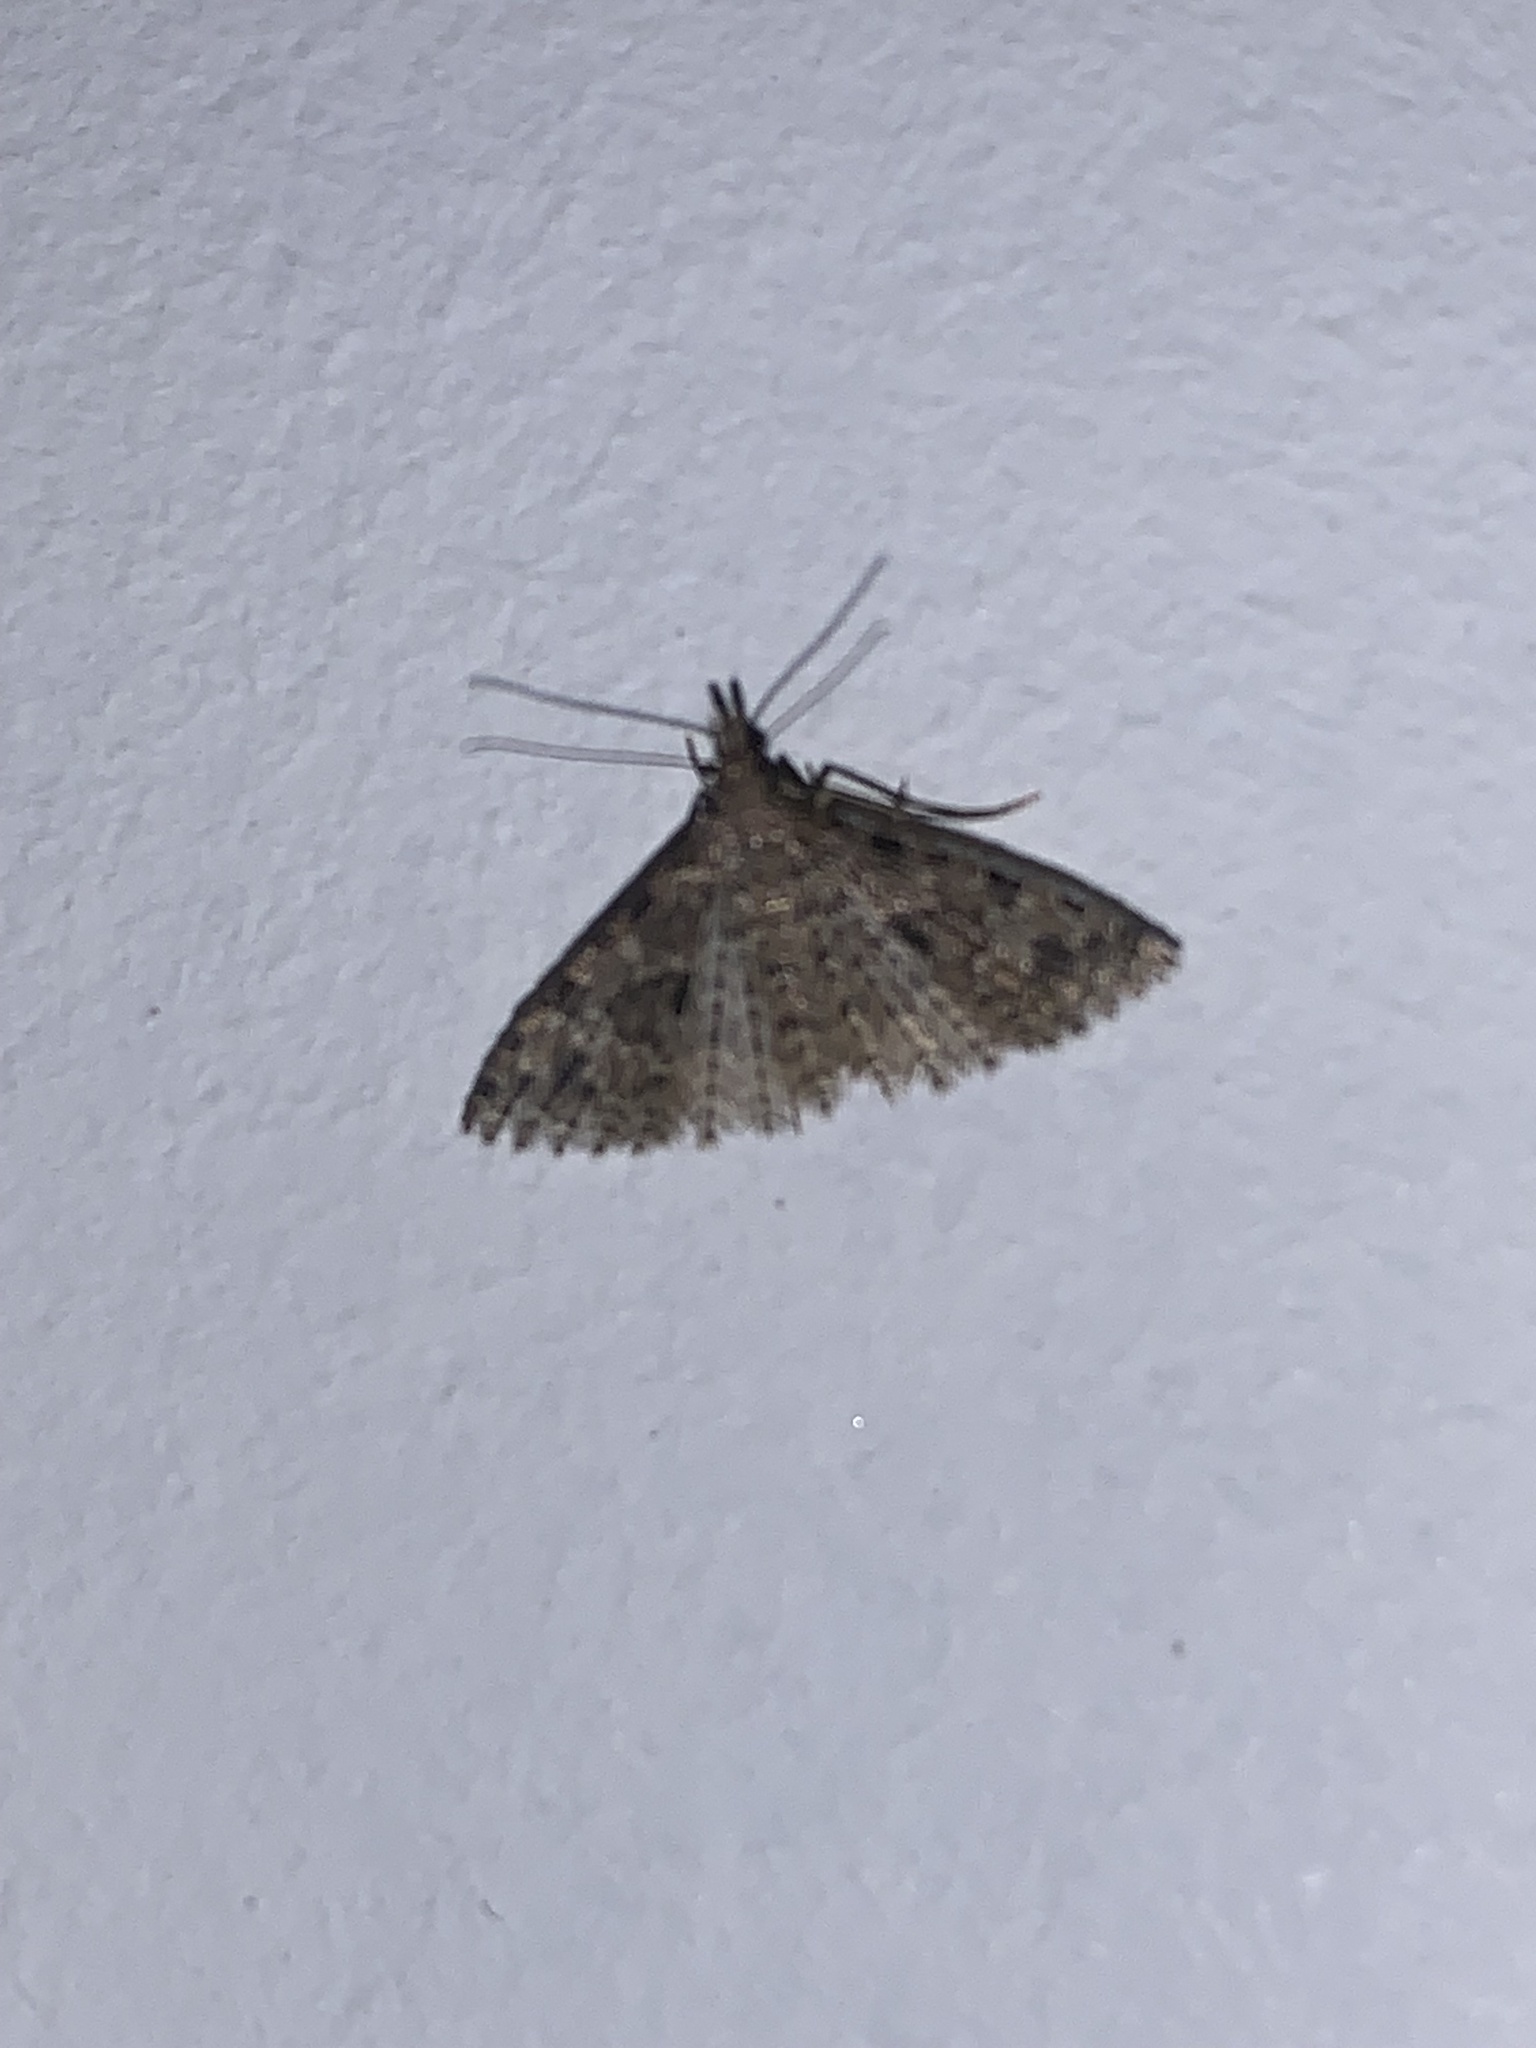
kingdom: Animalia
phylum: Arthropoda
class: Insecta
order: Lepidoptera
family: Alucitidae
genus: Alucita
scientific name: Alucita hexadactyla
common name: Twenty-plume moth
